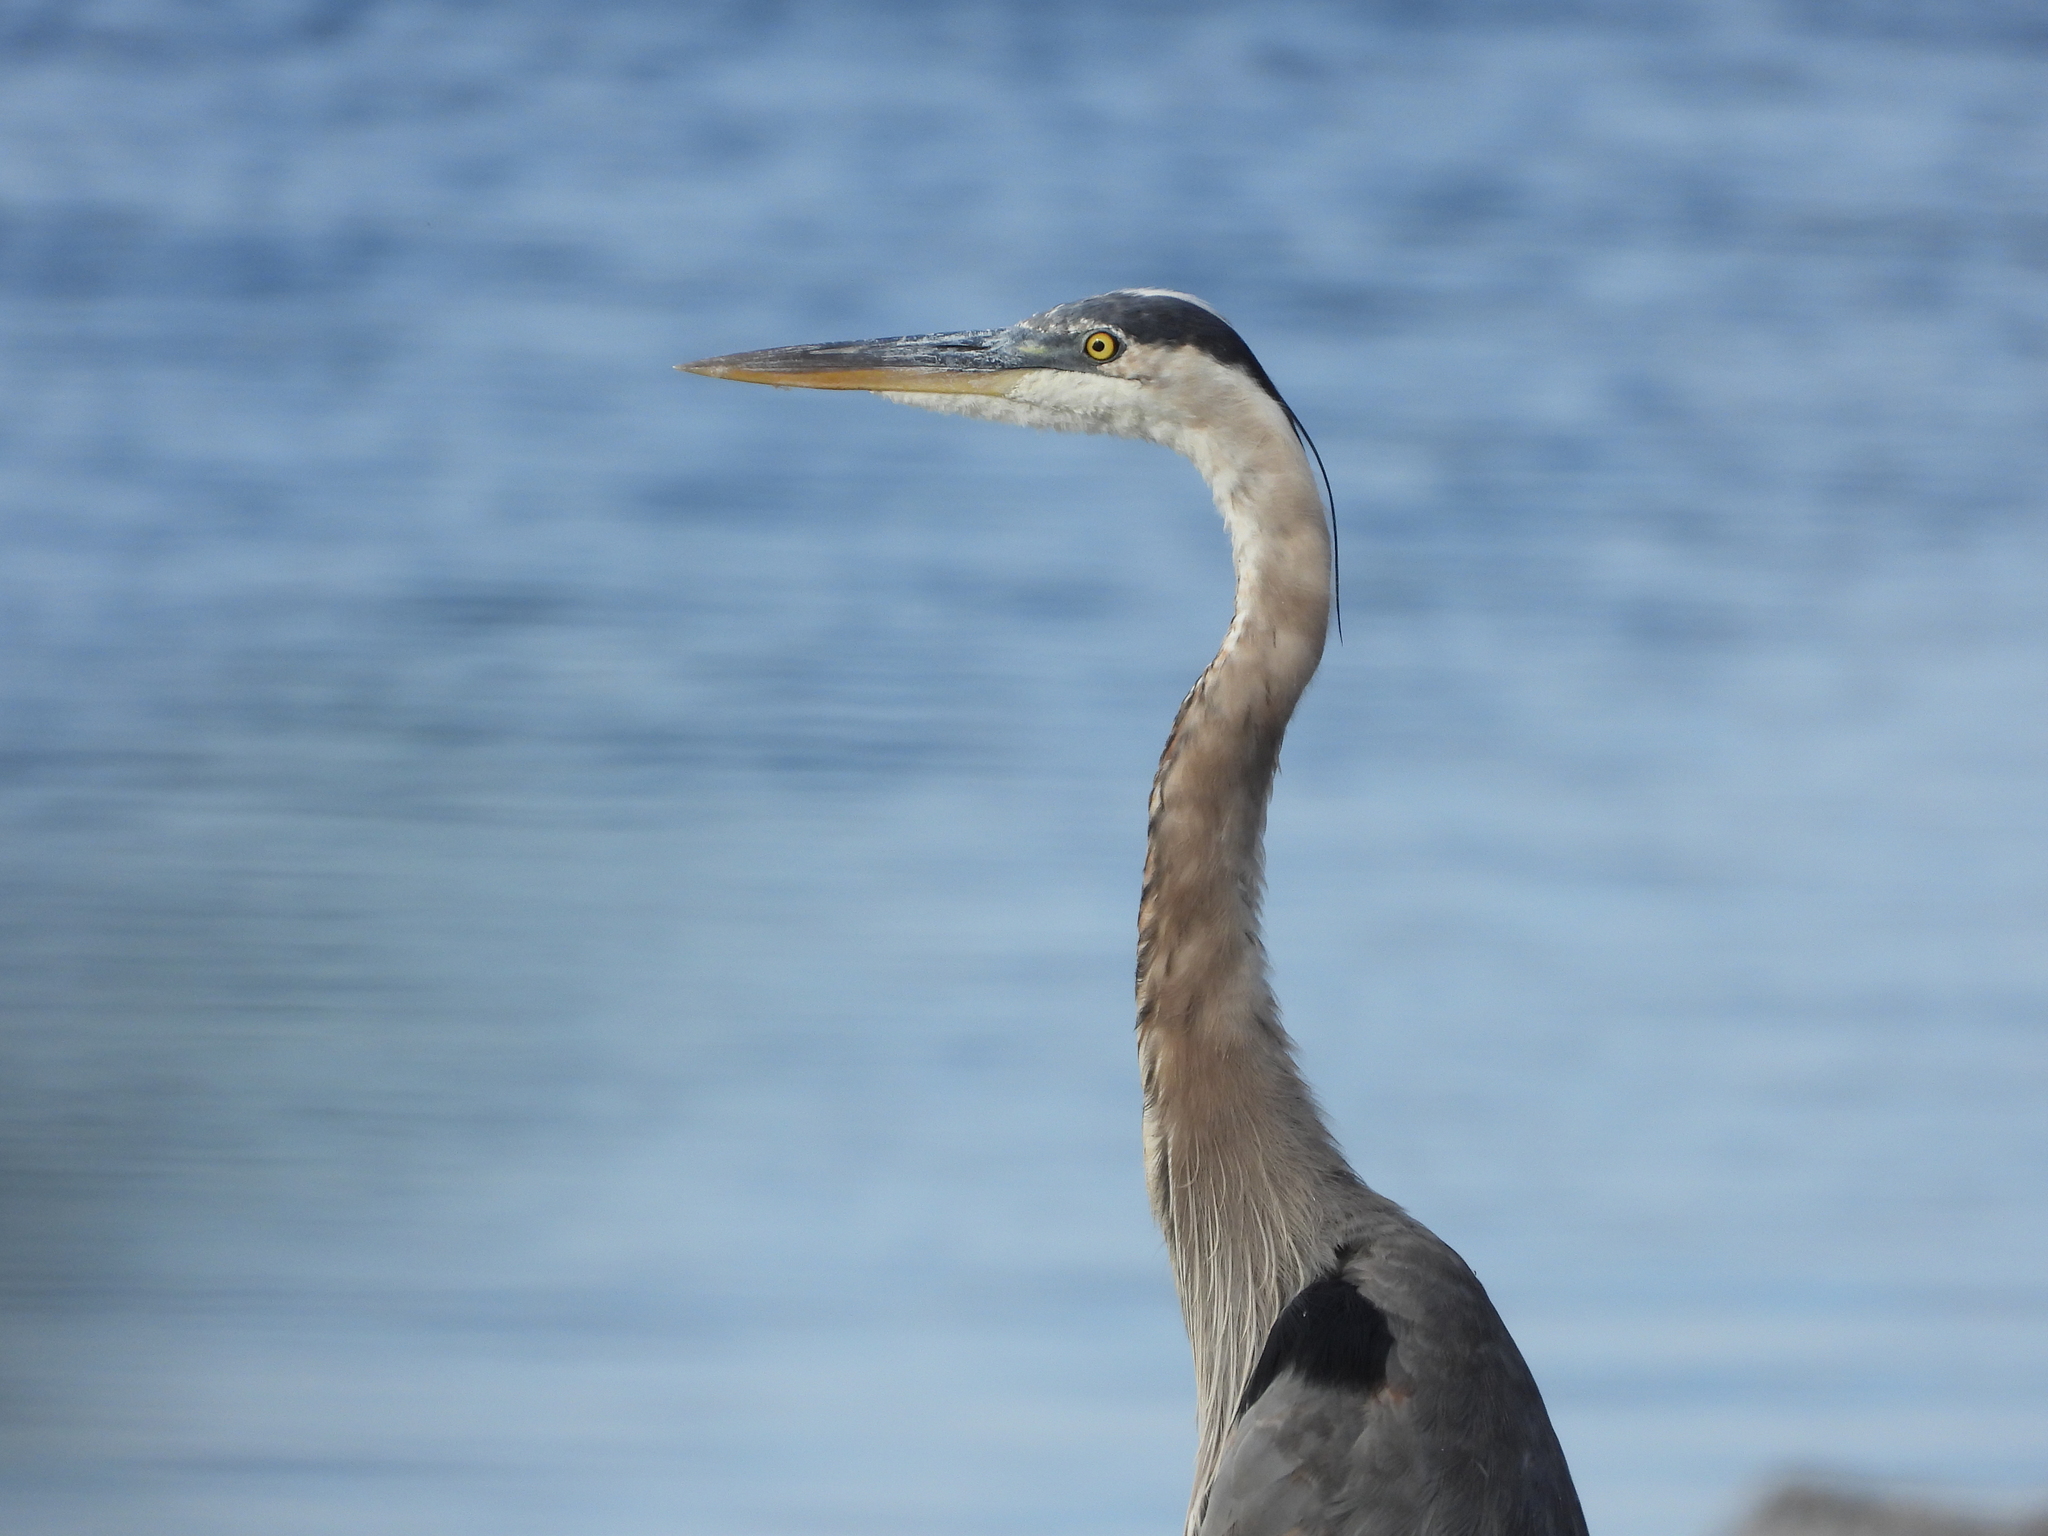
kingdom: Animalia
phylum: Chordata
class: Aves
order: Pelecaniformes
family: Ardeidae
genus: Ardea
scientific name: Ardea herodias
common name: Great blue heron
